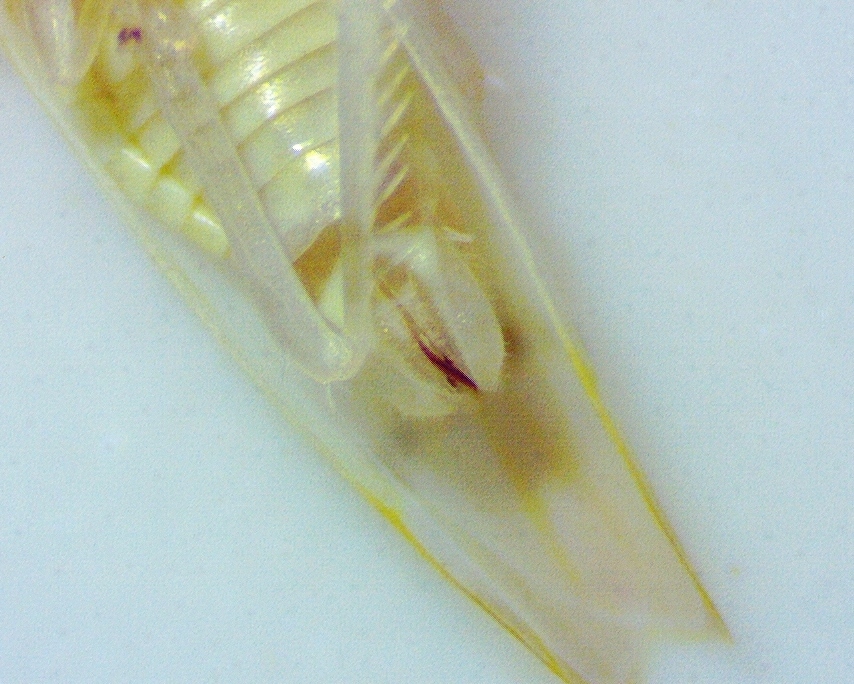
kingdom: Animalia
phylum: Arthropoda
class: Insecta
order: Hemiptera
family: Cicadellidae
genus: Ossiannilssonola
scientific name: Ossiannilssonola australis
